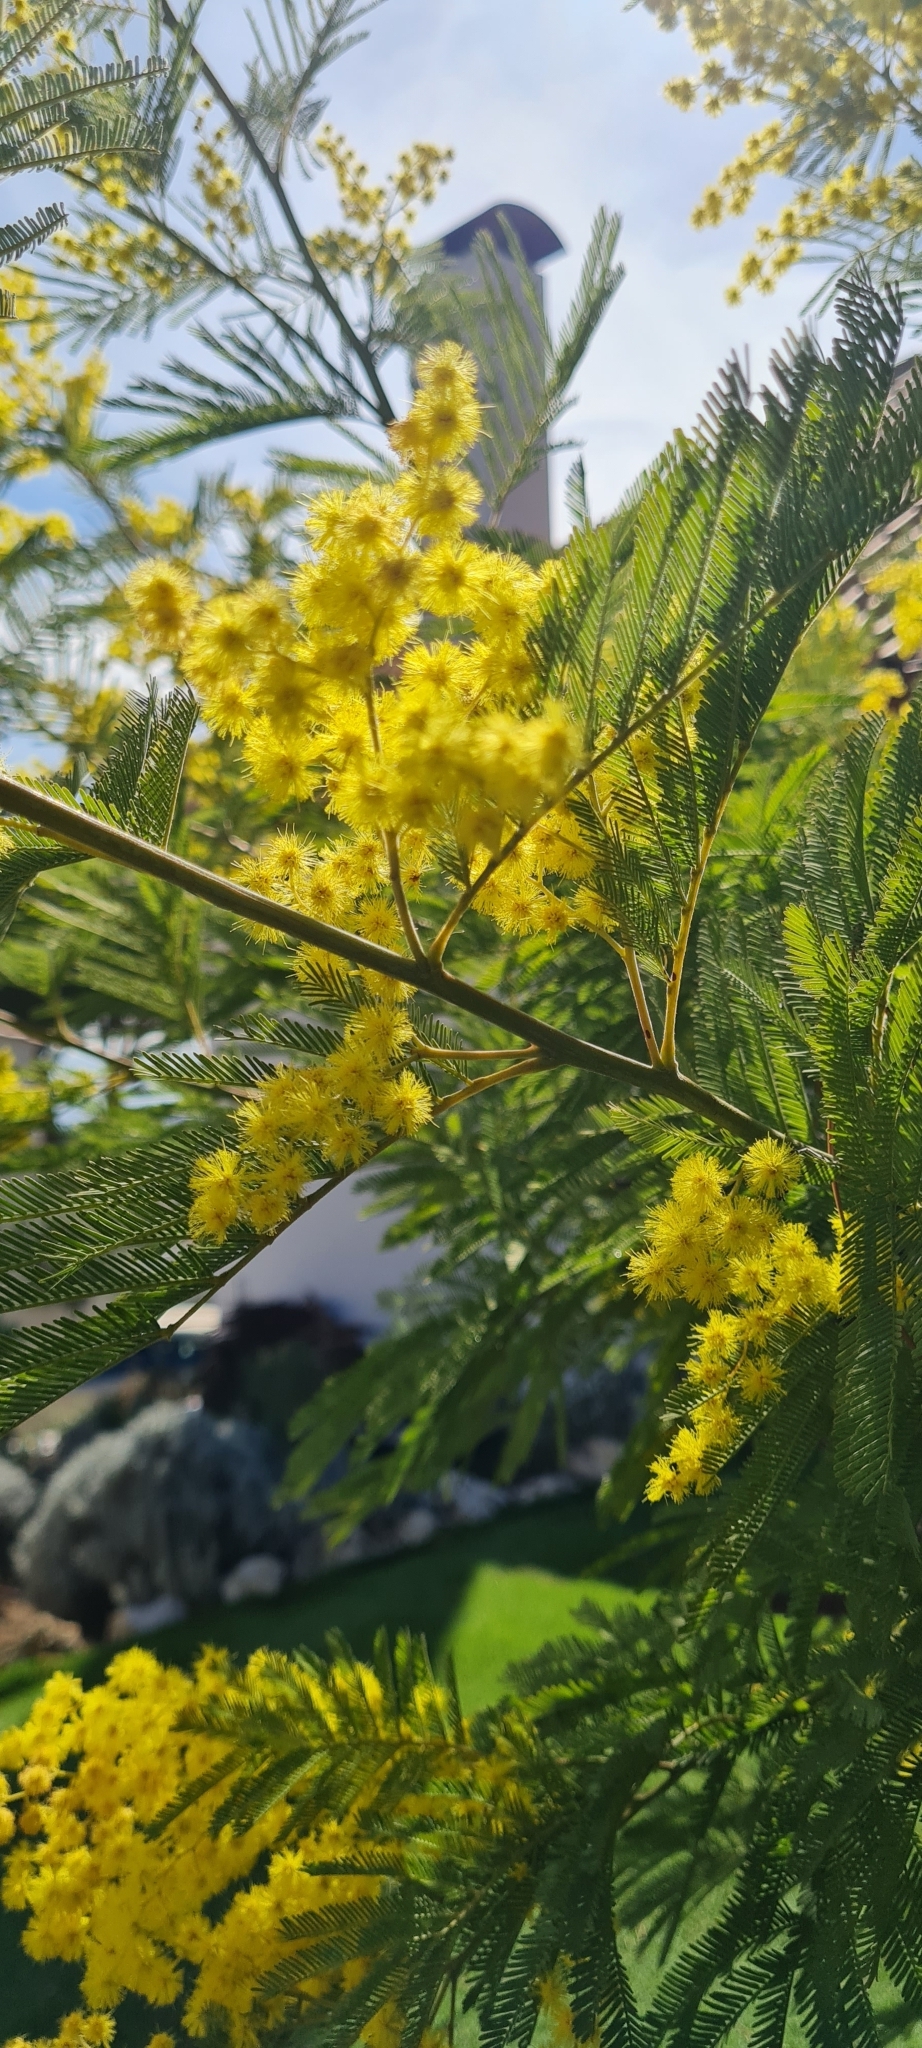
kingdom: Plantae
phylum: Tracheophyta
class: Magnoliopsida
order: Fabales
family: Fabaceae
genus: Acacia
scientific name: Acacia dealbata
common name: Silver wattle
